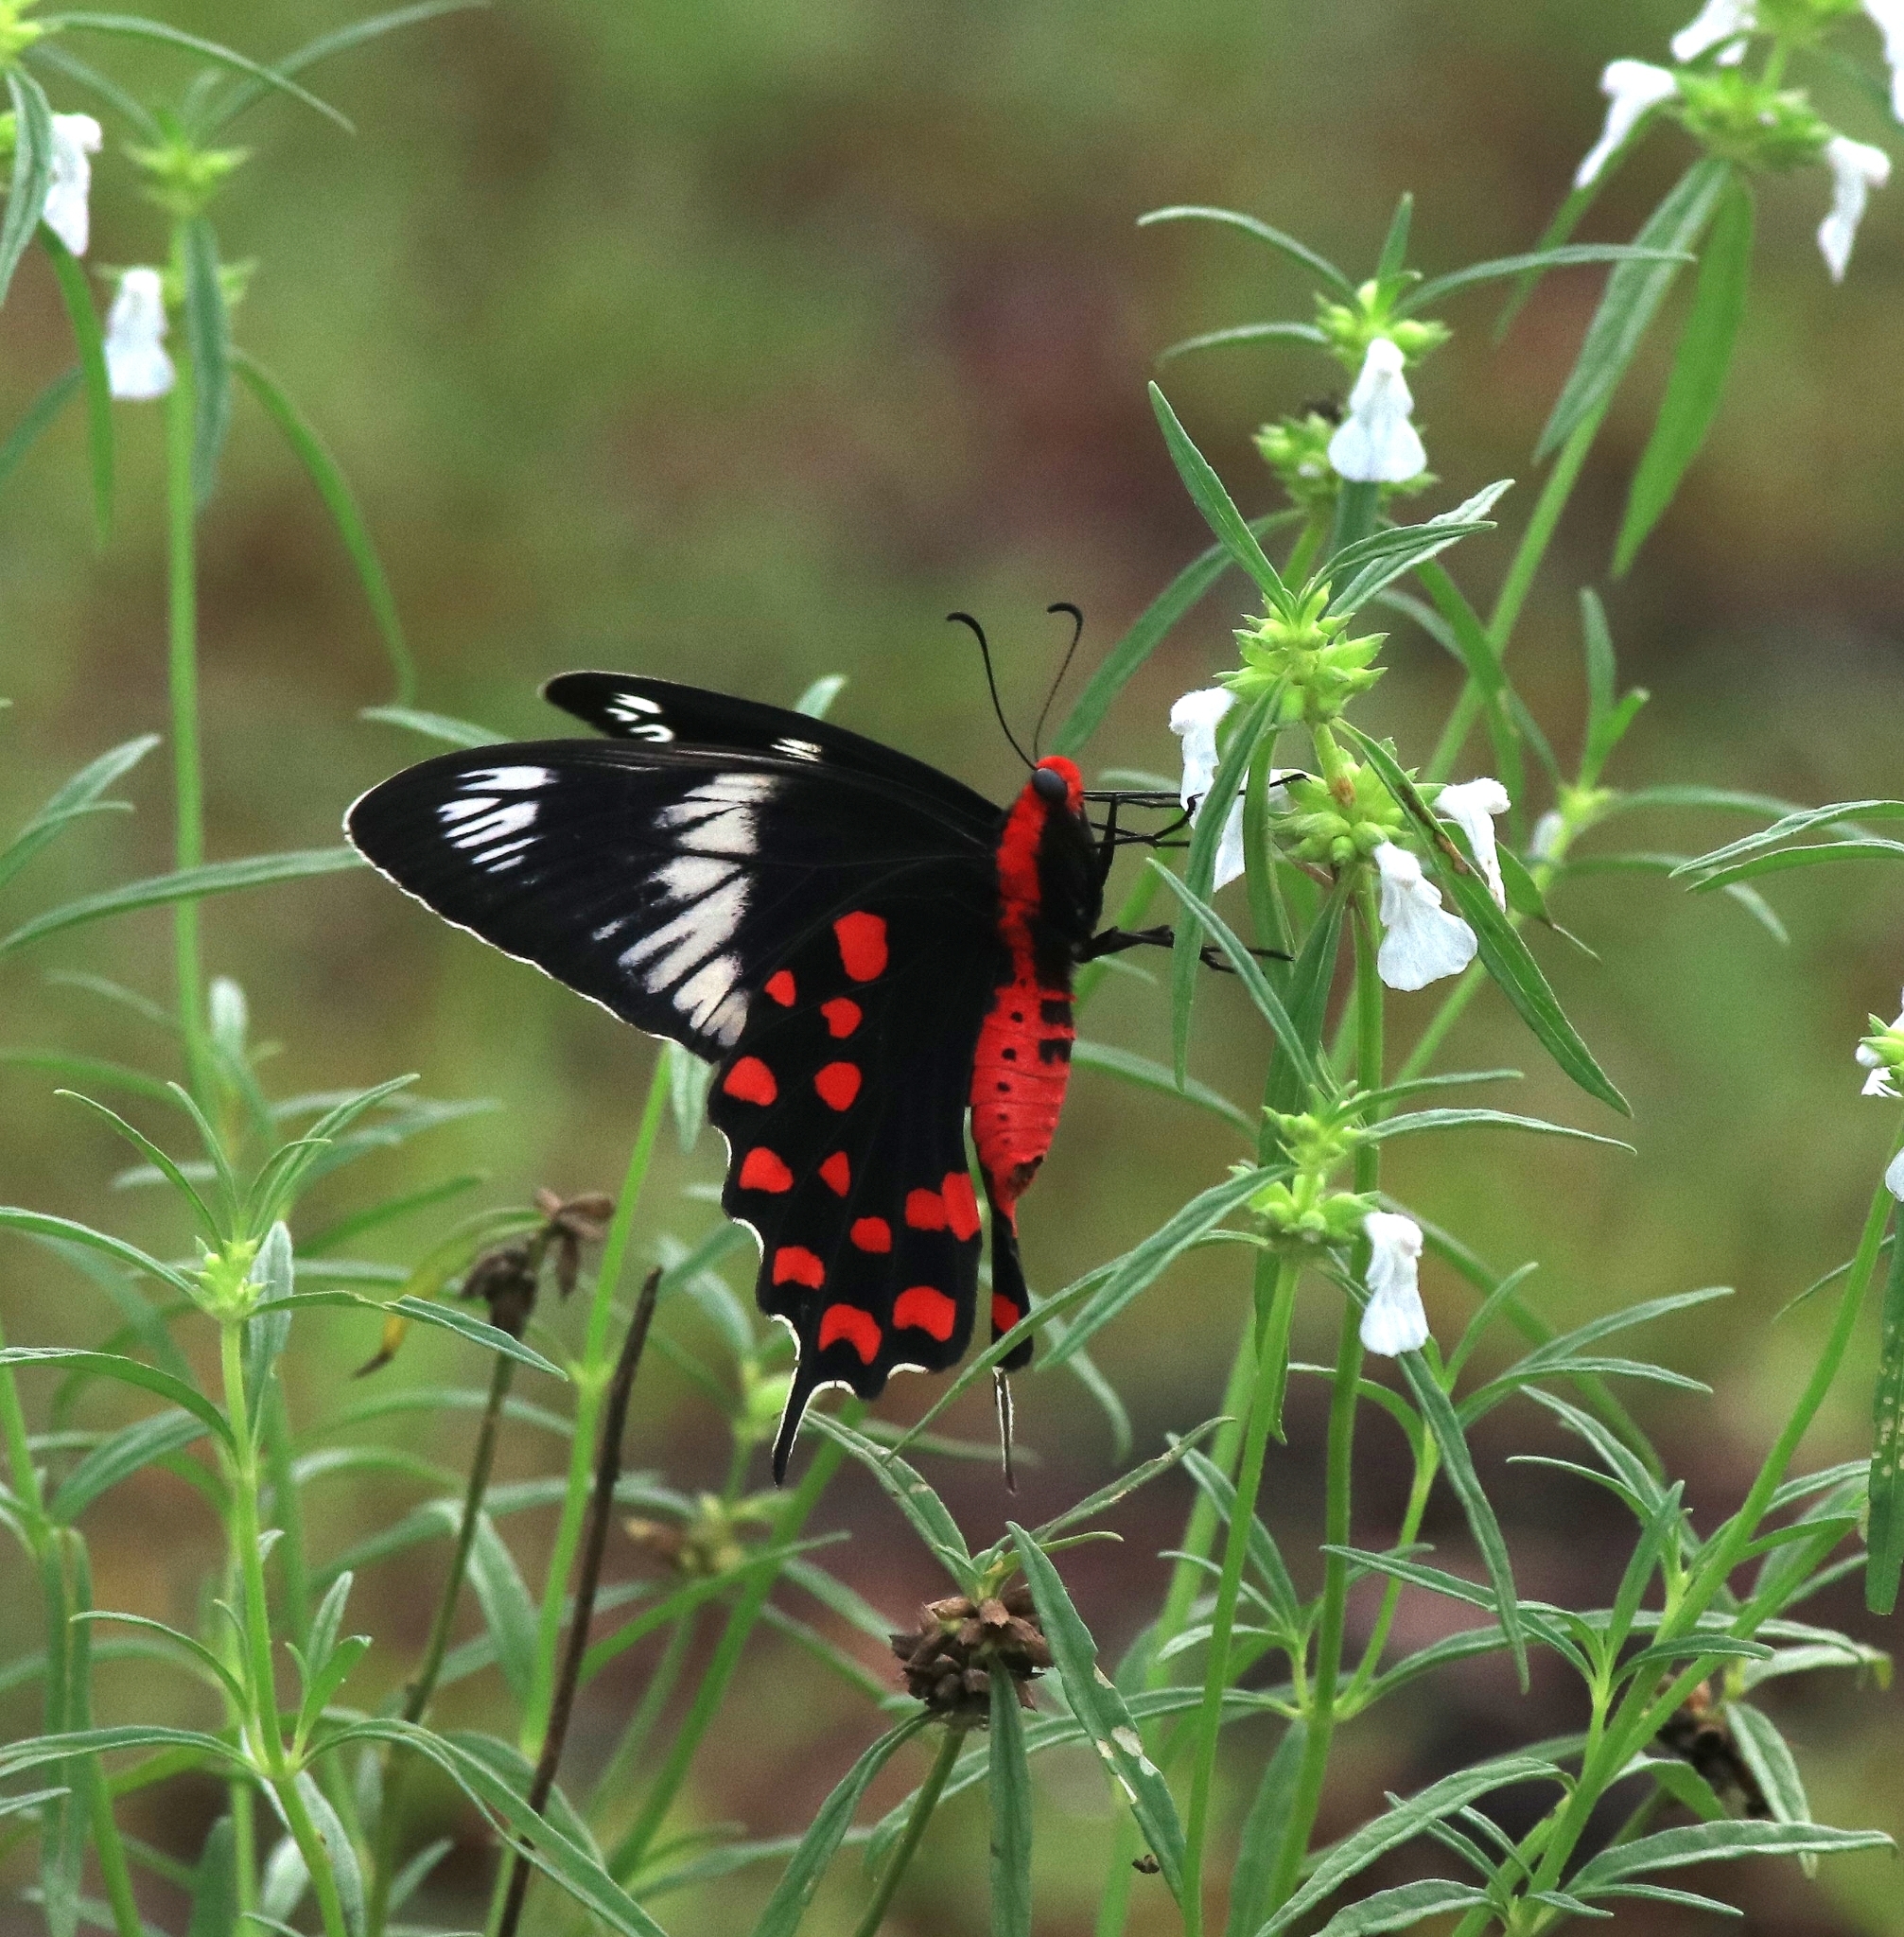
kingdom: Animalia
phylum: Arthropoda
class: Insecta
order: Lepidoptera
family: Papilionidae
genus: Pachliopta
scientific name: Pachliopta hector
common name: Crimson rose
